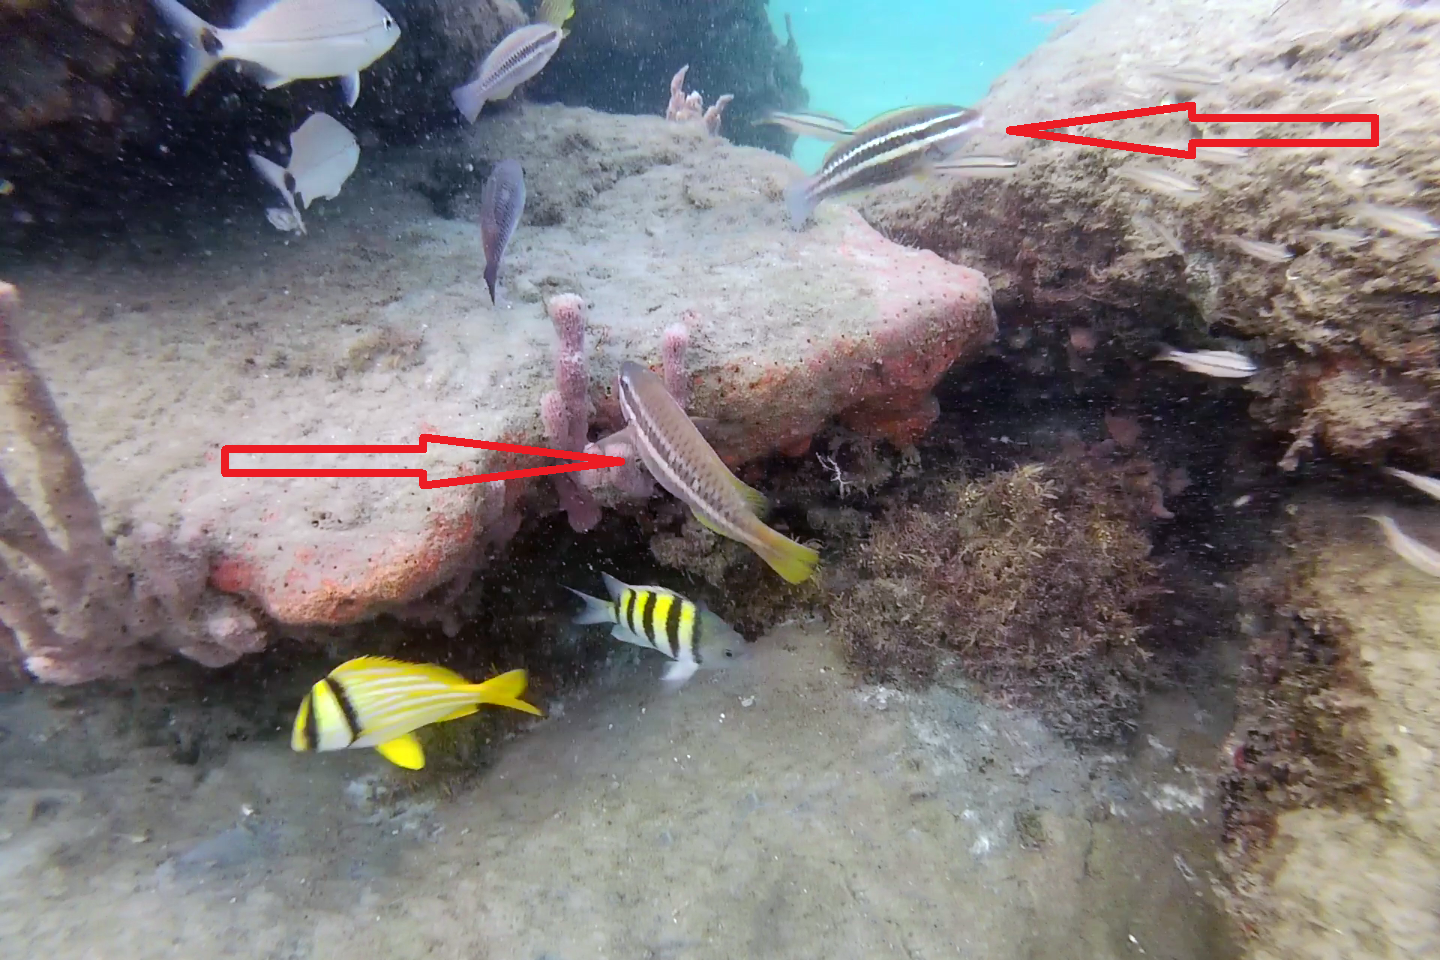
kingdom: Animalia
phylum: Chordata
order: Perciformes
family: Scaridae
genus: Scarus
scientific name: Scarus iseri
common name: Striped parrotfish
